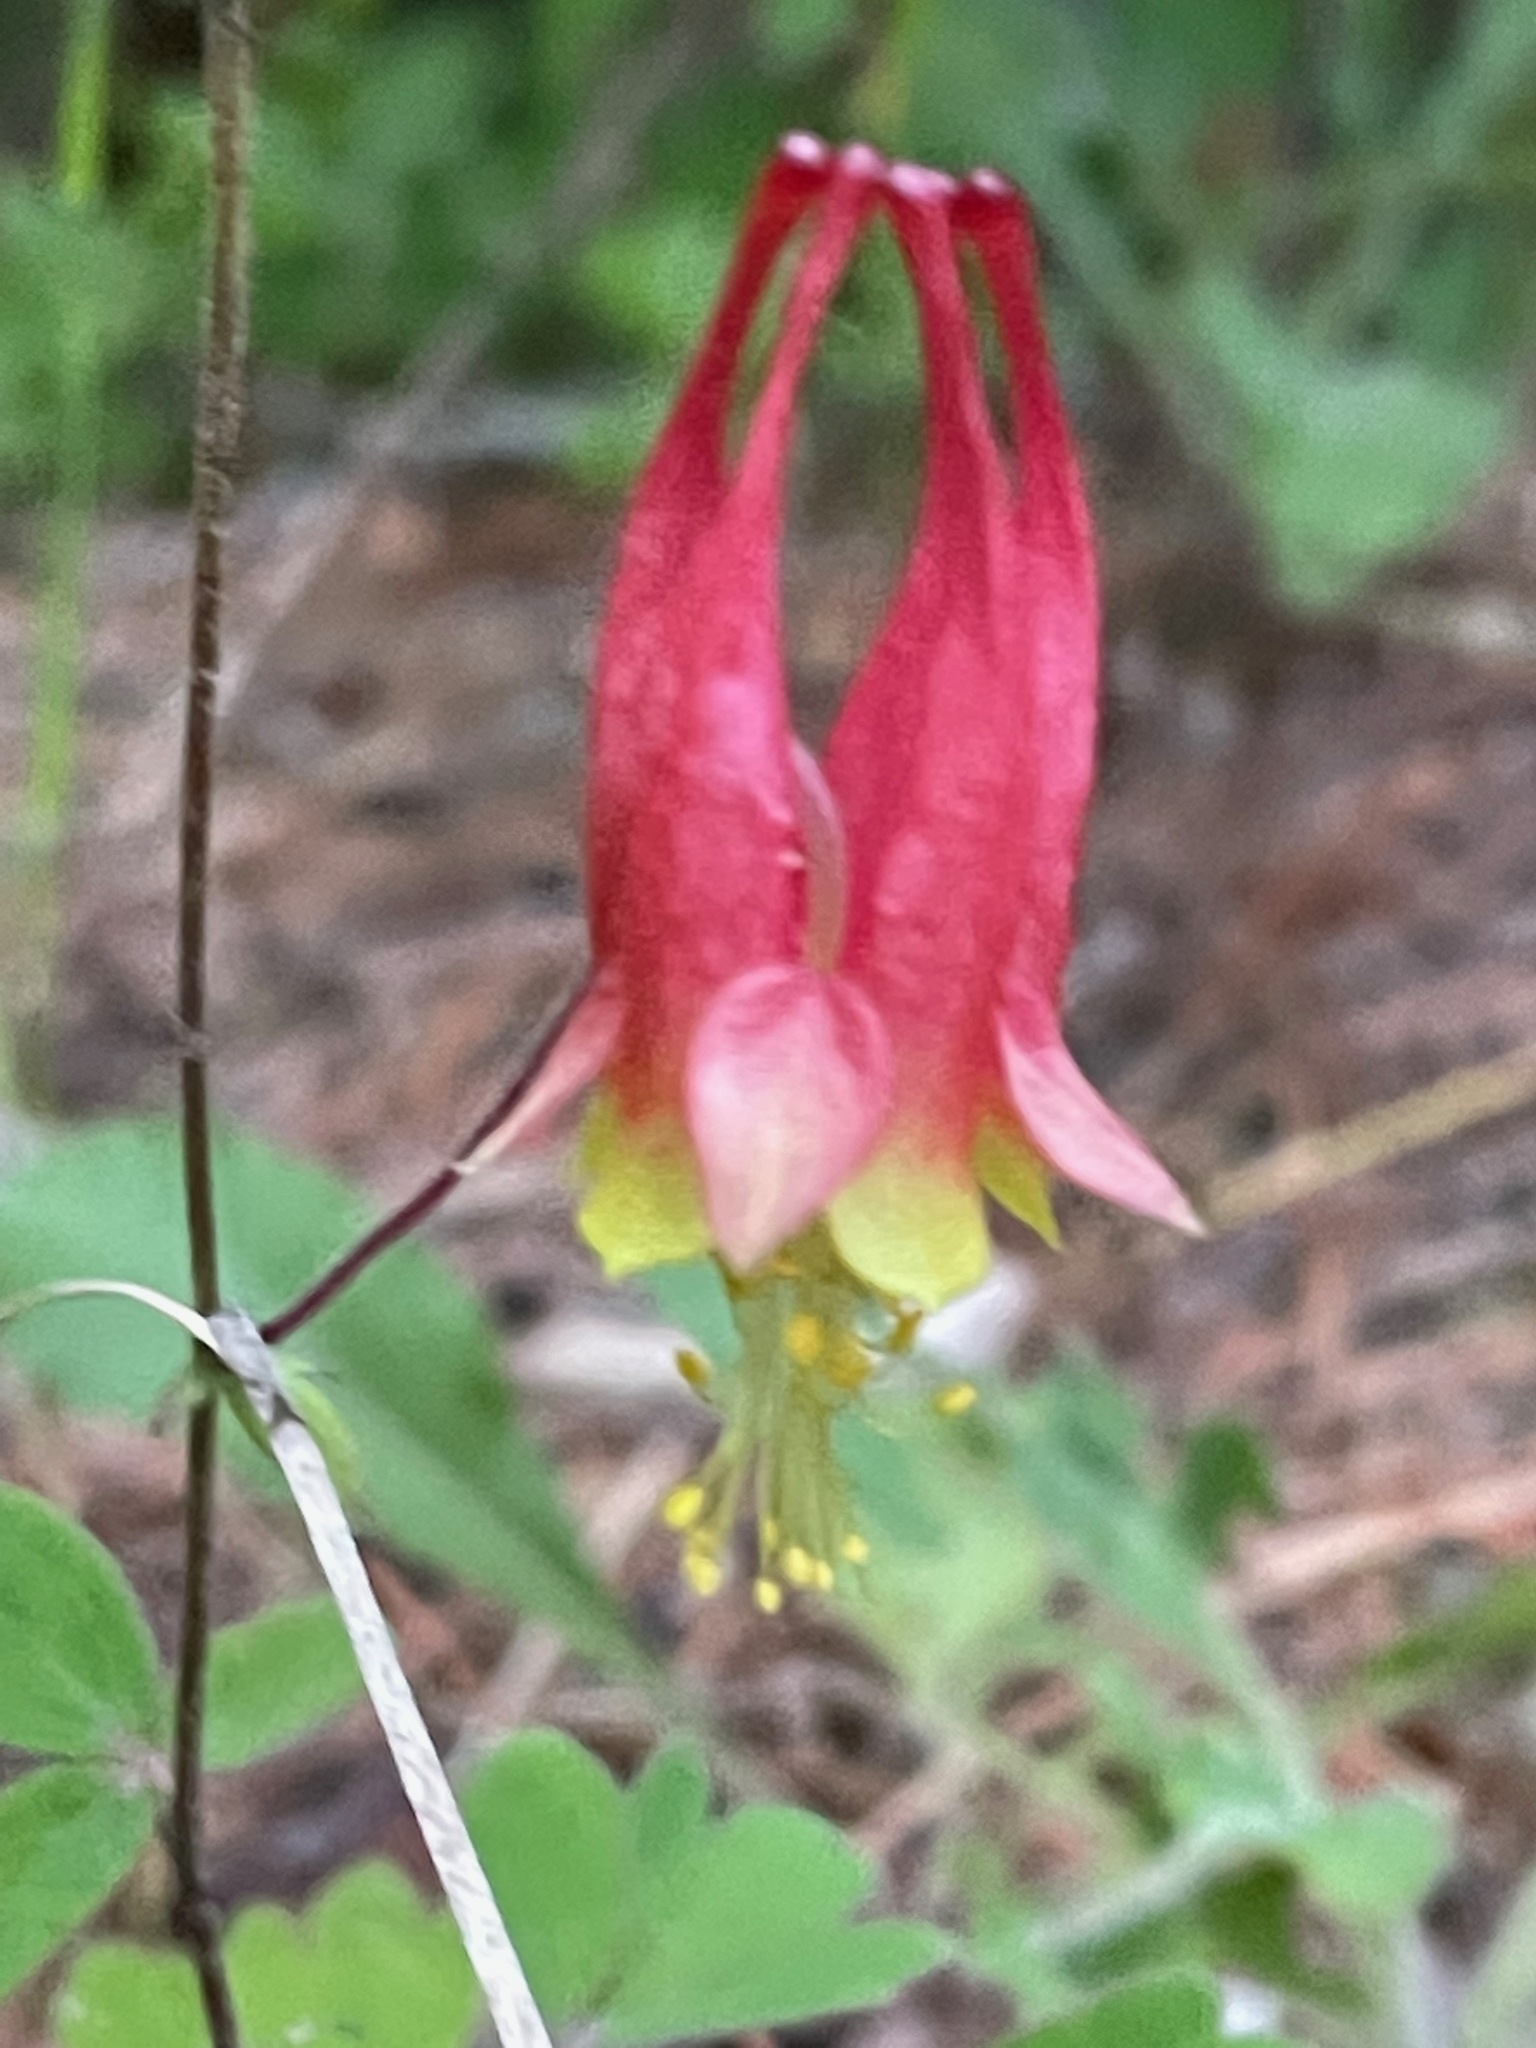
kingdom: Plantae
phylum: Tracheophyta
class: Magnoliopsida
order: Ranunculales
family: Ranunculaceae
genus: Aquilegia
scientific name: Aquilegia canadensis
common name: American columbine
